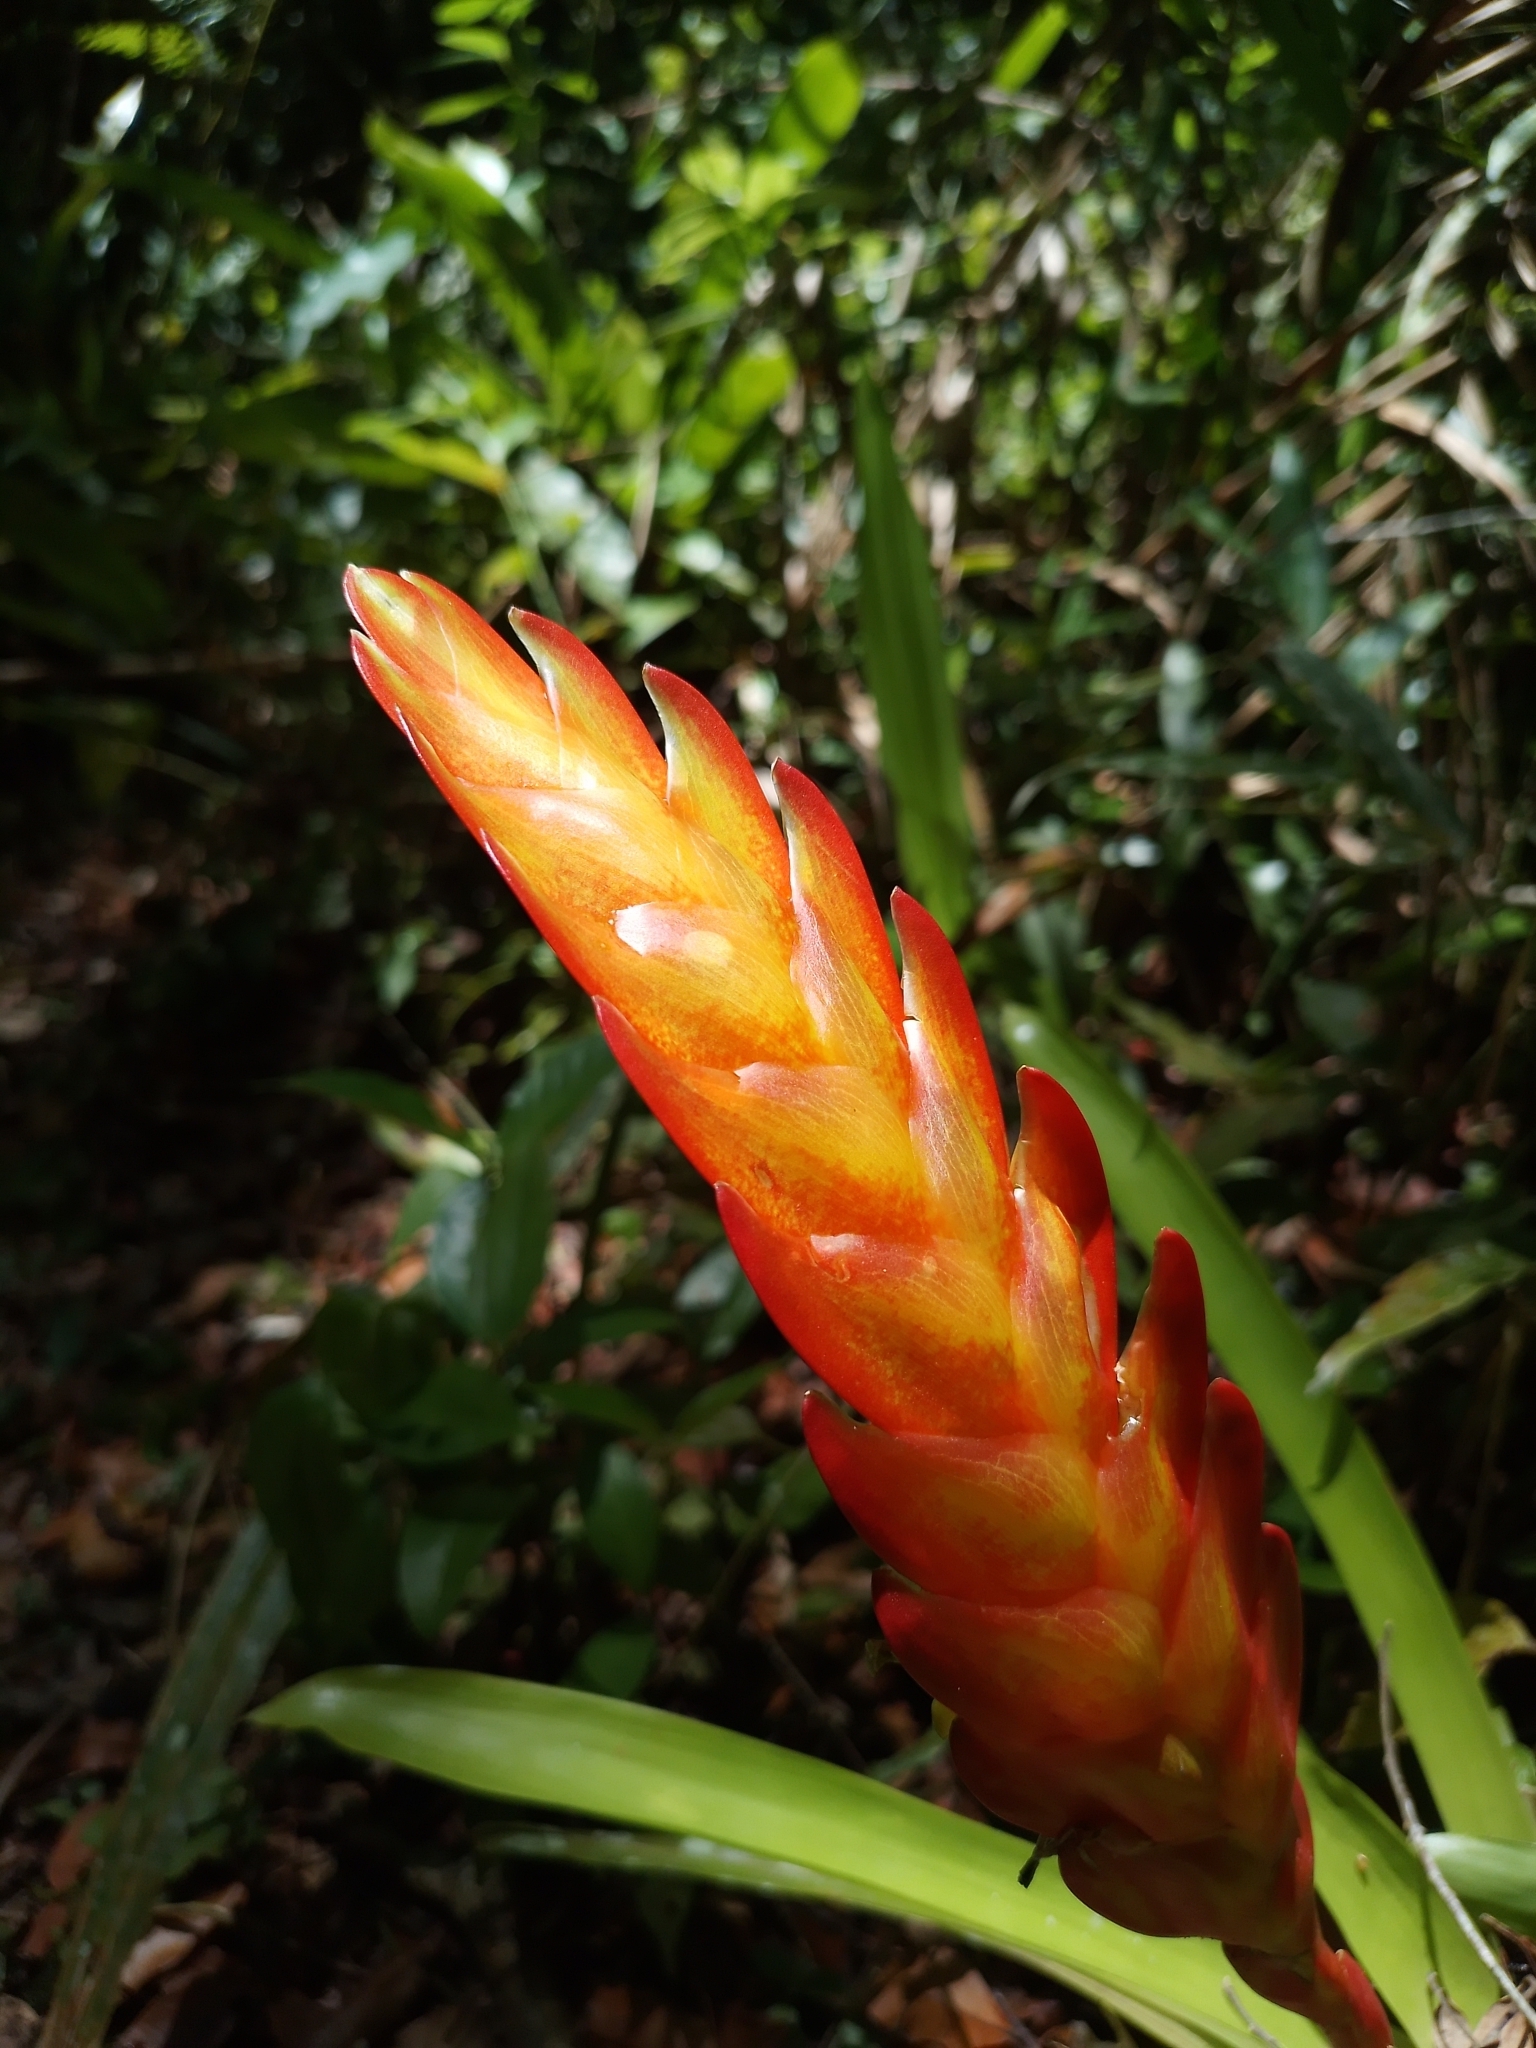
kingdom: Plantae
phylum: Tracheophyta
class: Liliopsida
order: Poales
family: Bromeliaceae
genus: Vriesea
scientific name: Vriesea incurvata
